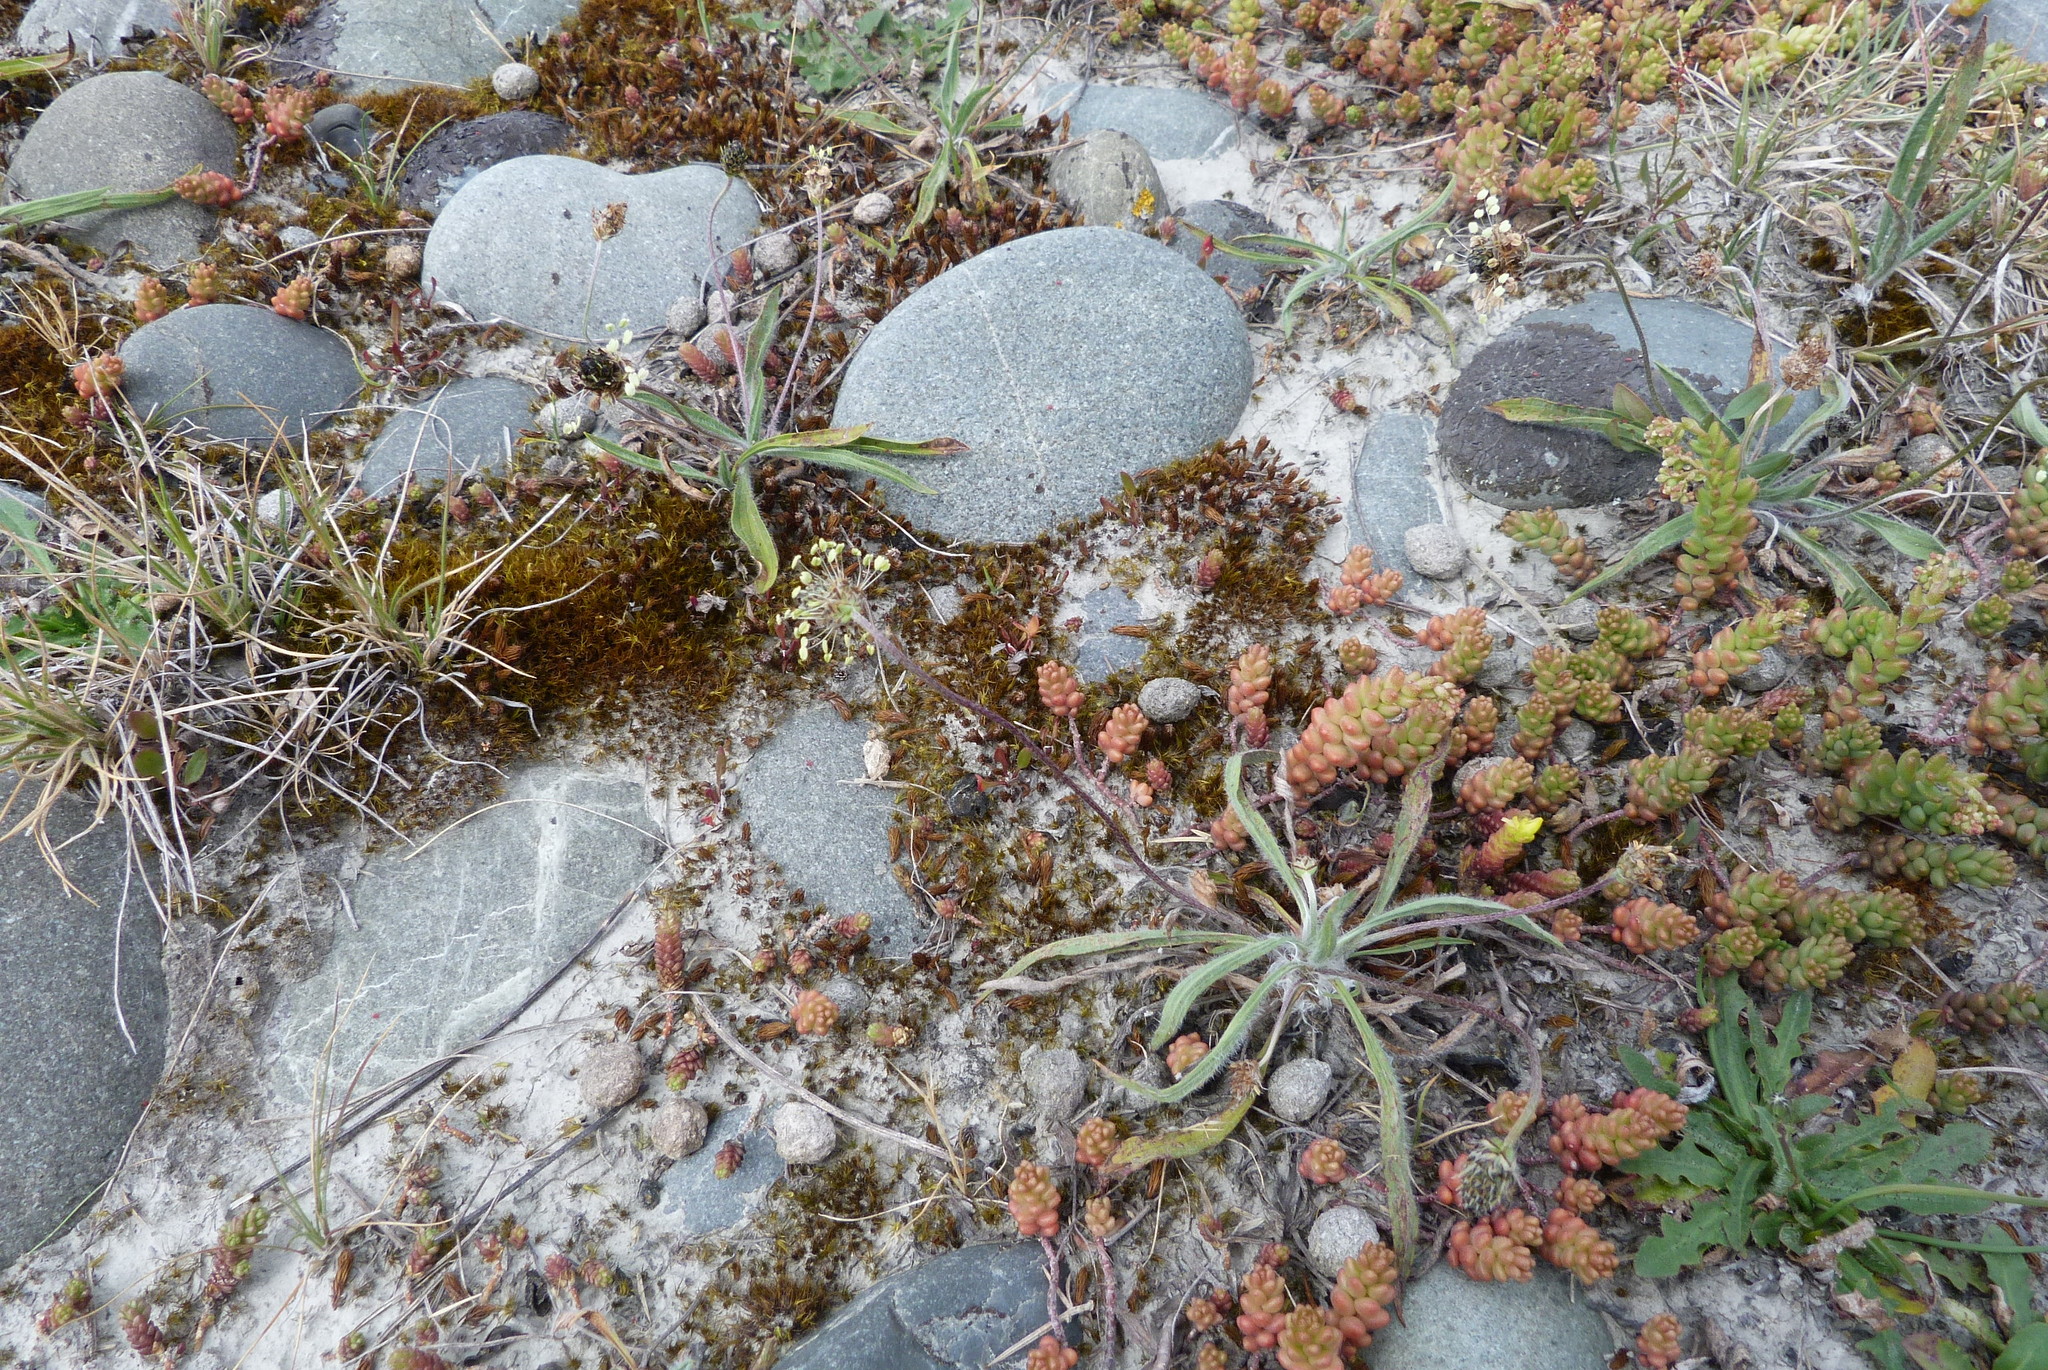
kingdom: Plantae
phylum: Tracheophyta
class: Magnoliopsida
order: Lamiales
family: Plantaginaceae
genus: Plantago
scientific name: Plantago lanceolata
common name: Ribwort plantain
